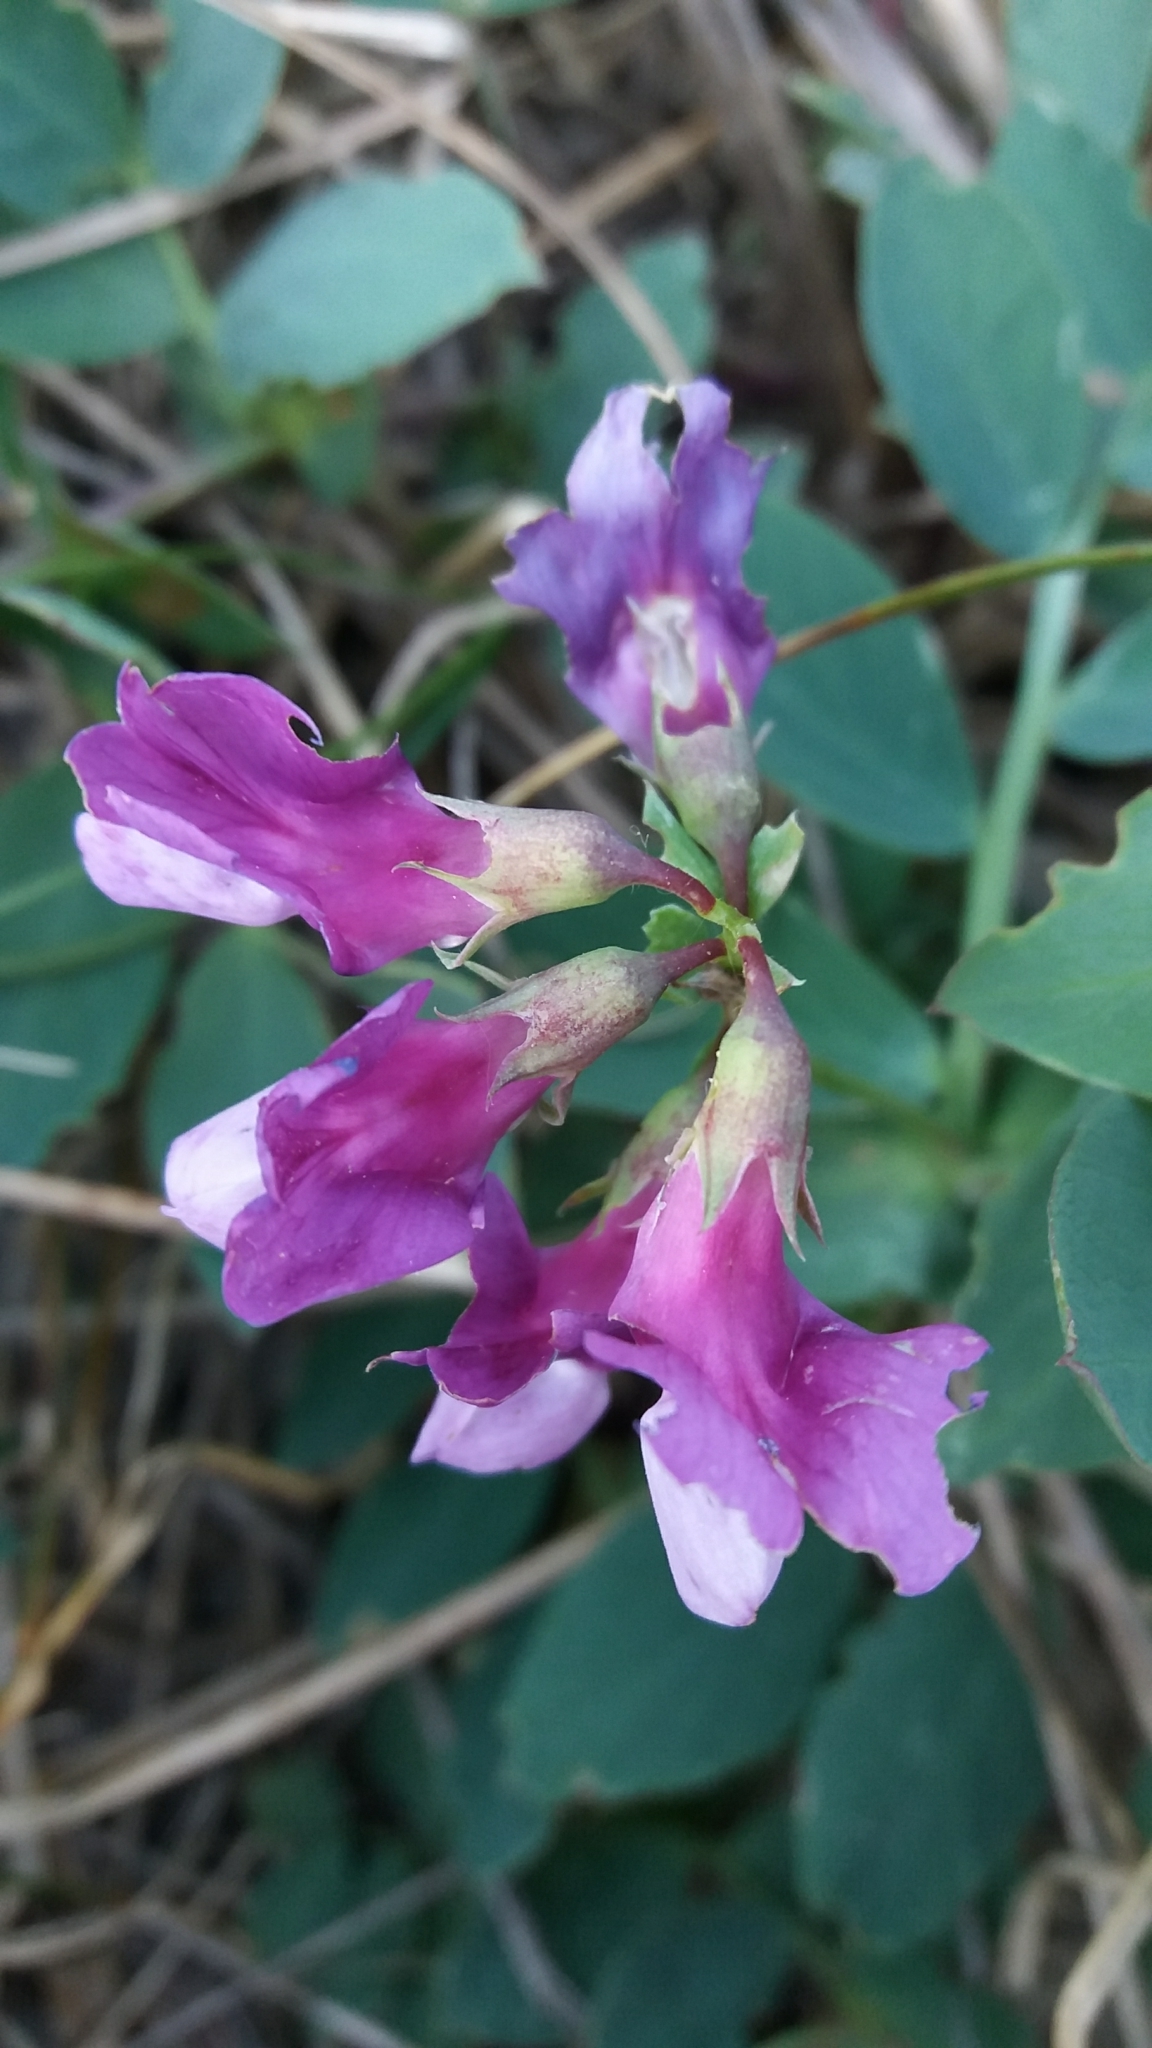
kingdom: Plantae
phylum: Tracheophyta
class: Magnoliopsida
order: Fabales
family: Fabaceae
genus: Lathyrus
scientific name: Lathyrus japonicus
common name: Sea pea
